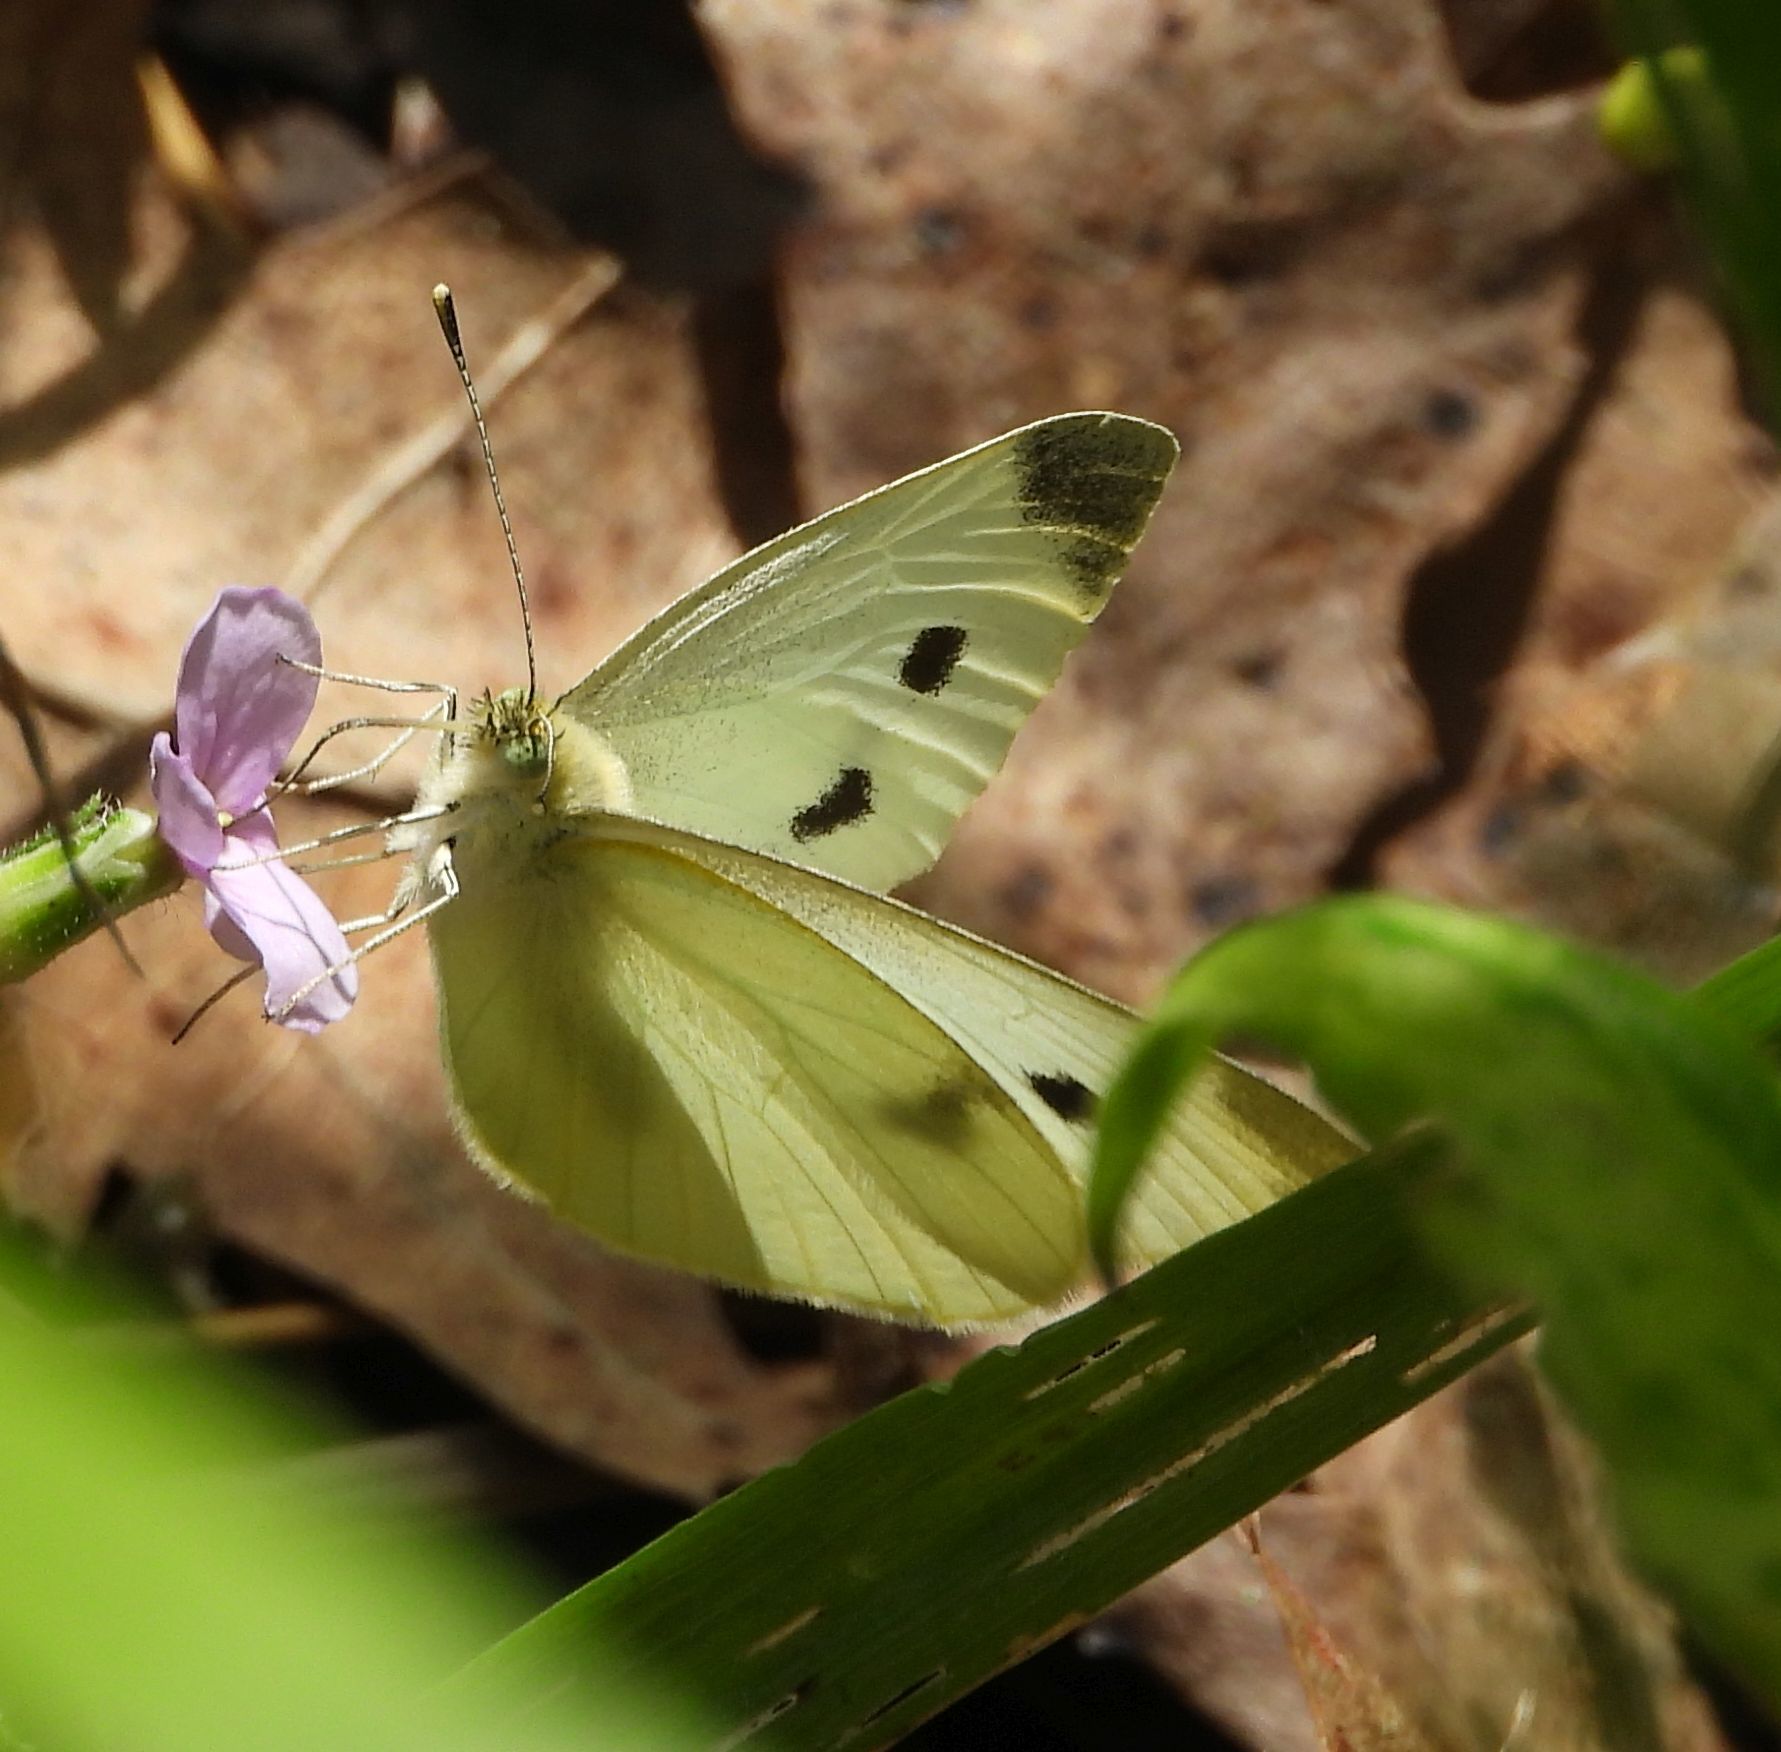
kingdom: Animalia
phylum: Arthropoda
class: Insecta
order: Lepidoptera
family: Pieridae
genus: Pieris
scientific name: Pieris rapae
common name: Small white
